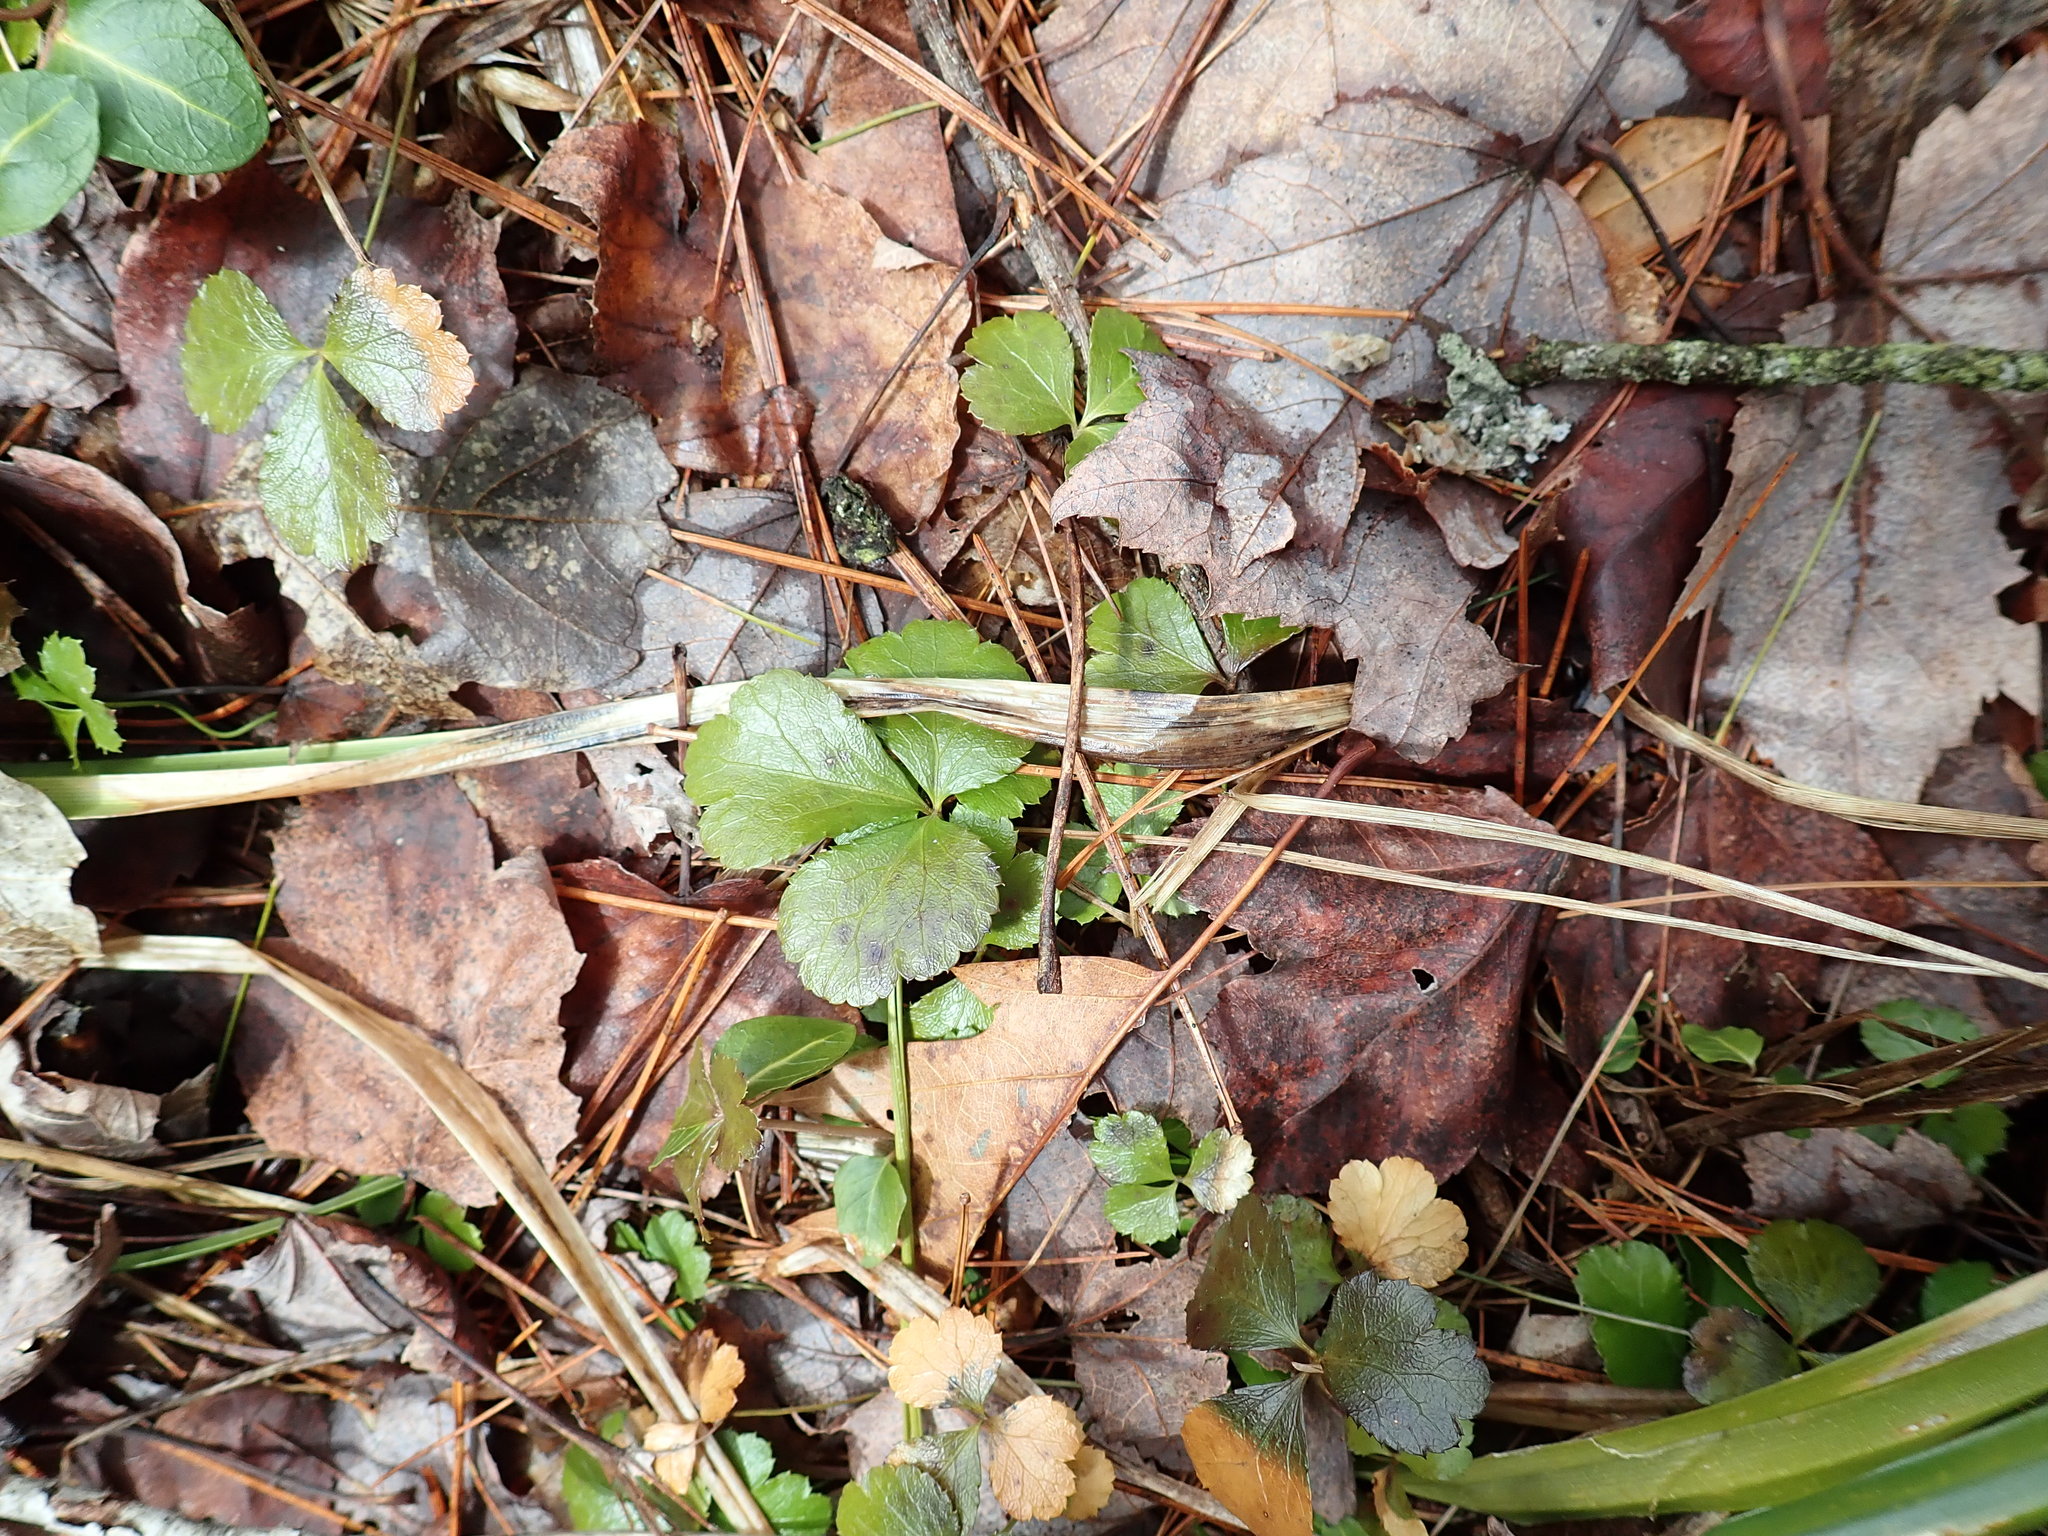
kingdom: Plantae
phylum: Tracheophyta
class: Magnoliopsida
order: Ranunculales
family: Ranunculaceae
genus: Coptis
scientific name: Coptis trifolia
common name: Canker-root
